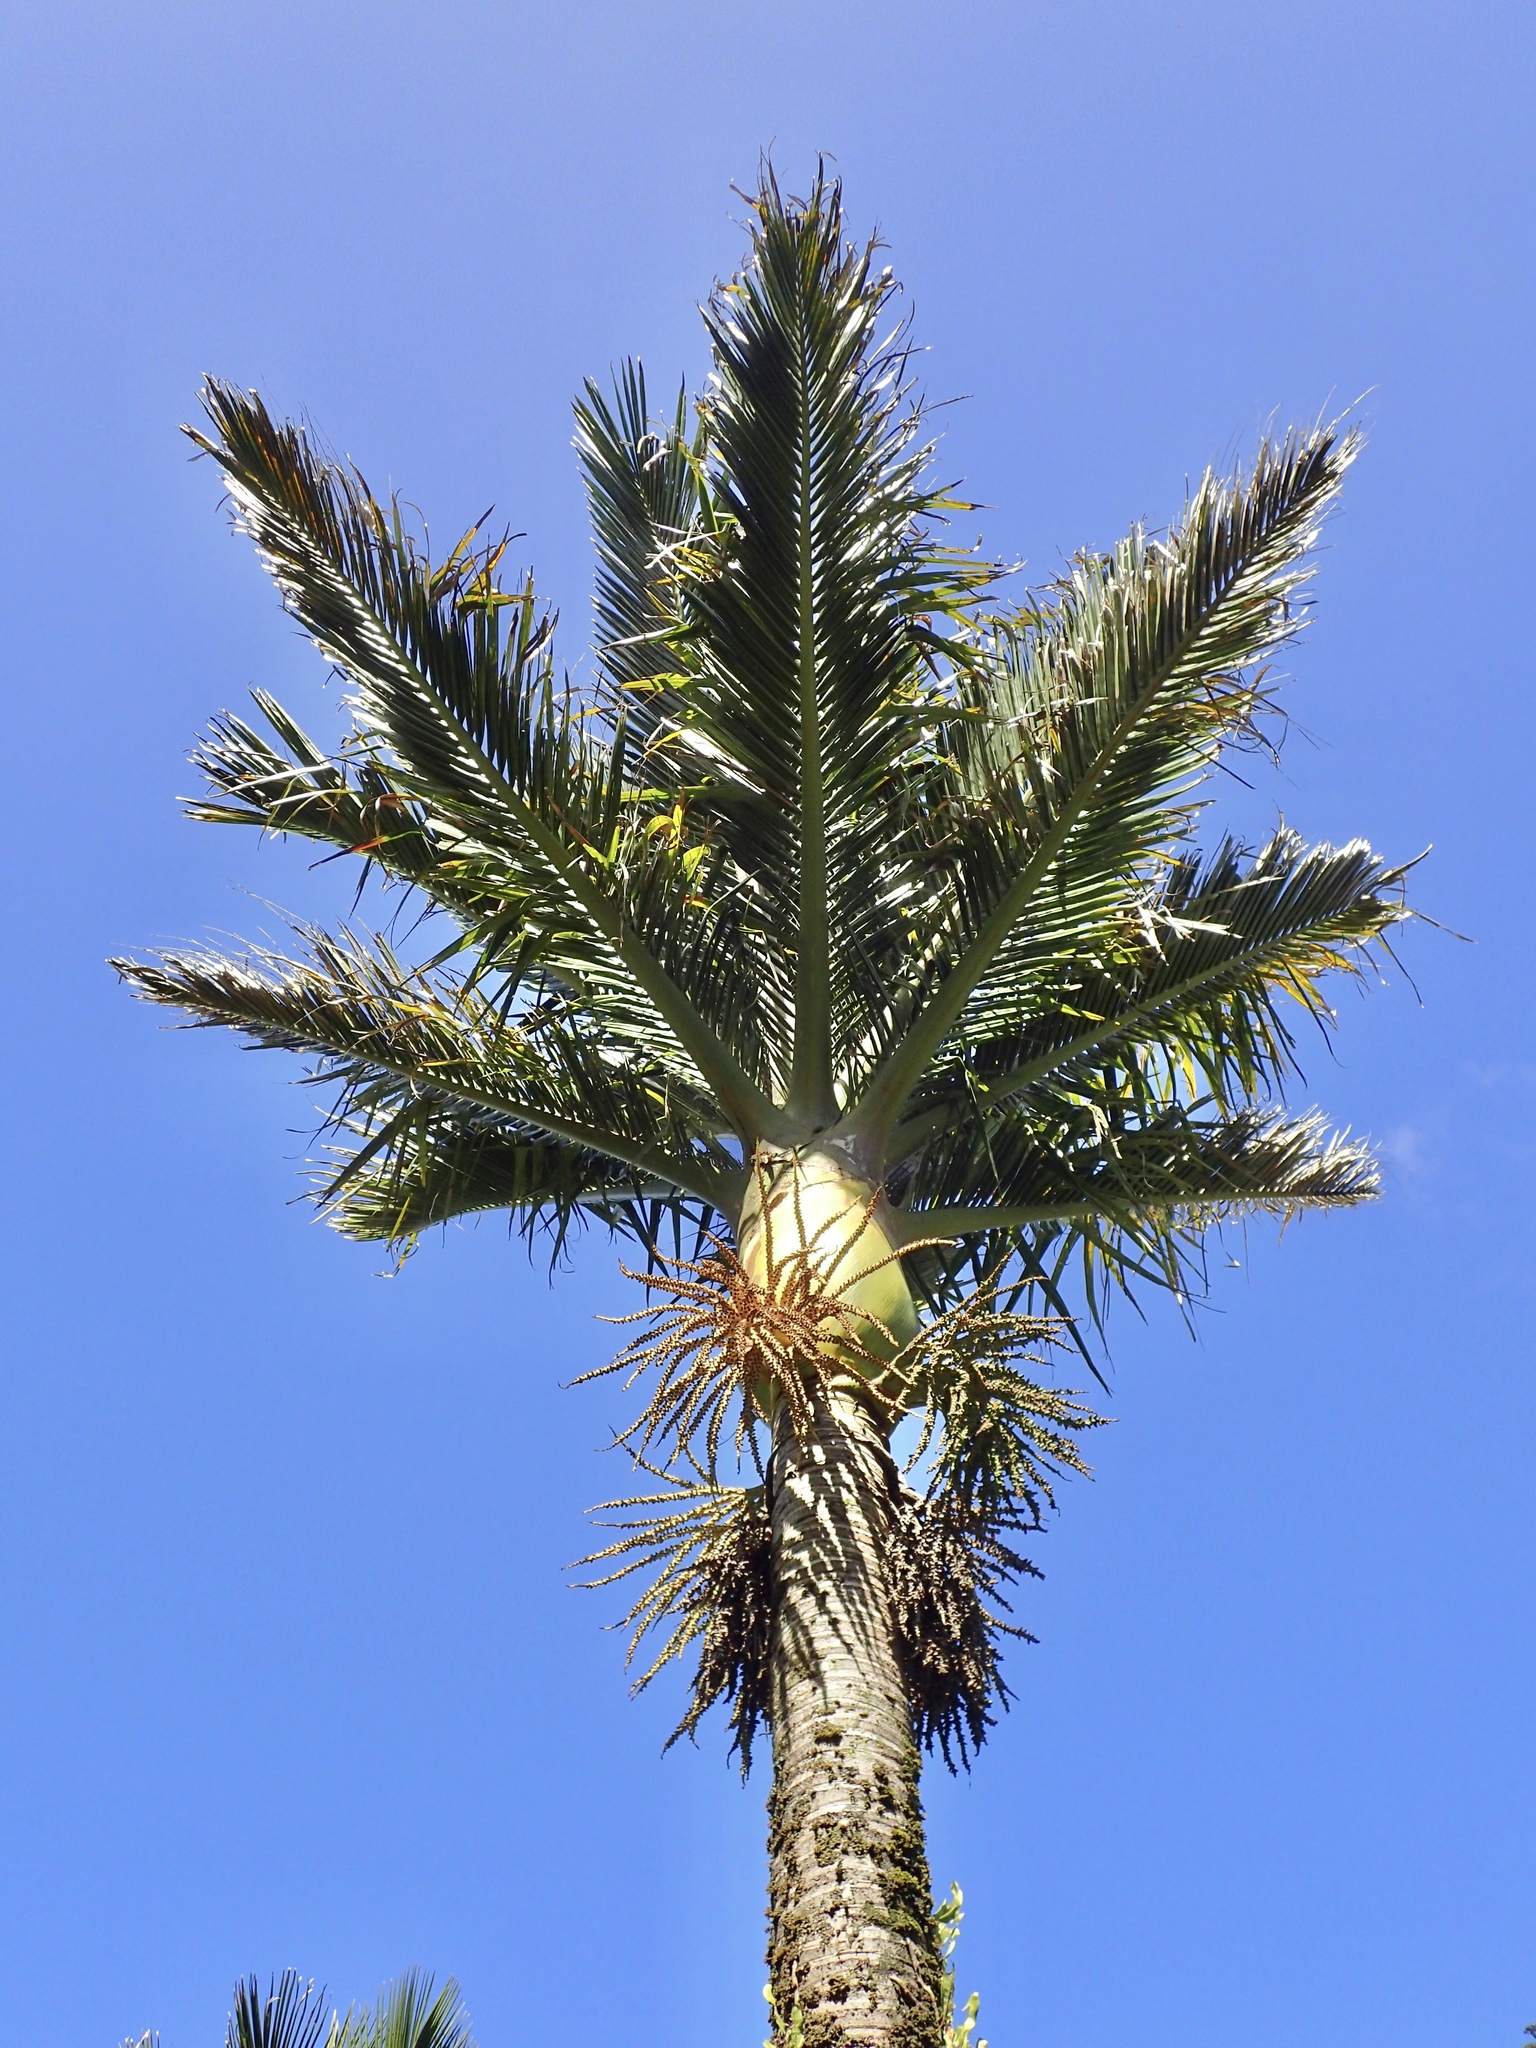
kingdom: Plantae
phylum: Tracheophyta
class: Liliopsida
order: Arecales
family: Arecaceae
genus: Rhopalostylis
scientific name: Rhopalostylis sapida
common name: Feather-duster palm
